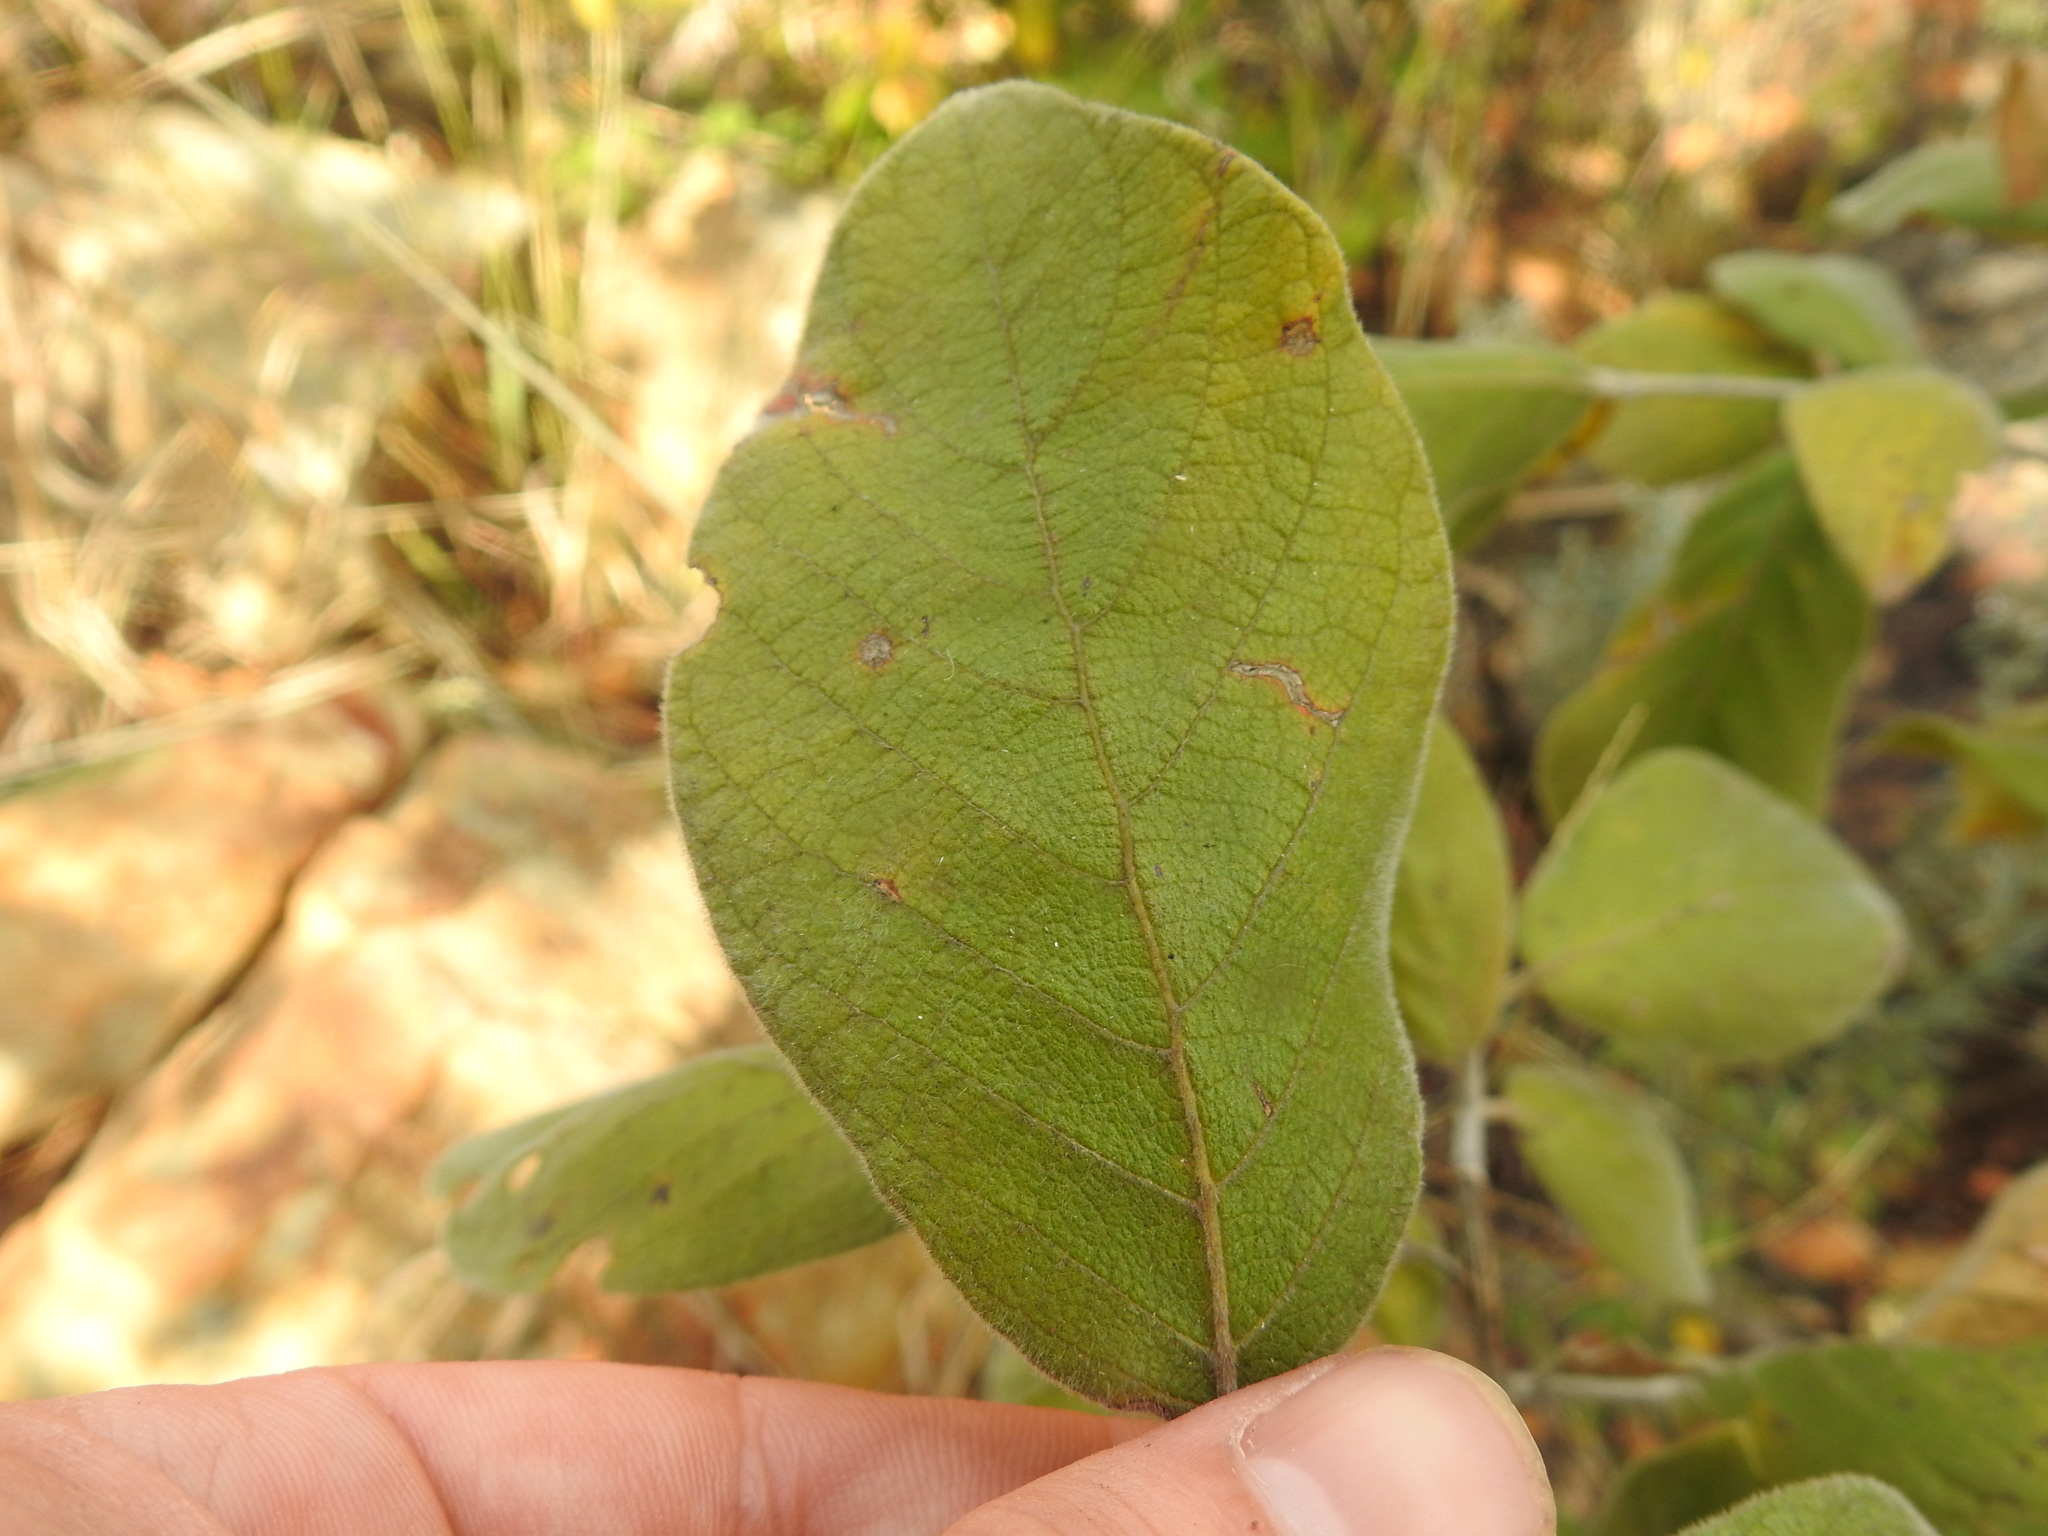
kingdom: Plantae
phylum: Tracheophyta
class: Magnoliopsida
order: Myrtales
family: Combretaceae
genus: Combretum
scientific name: Combretum molle
